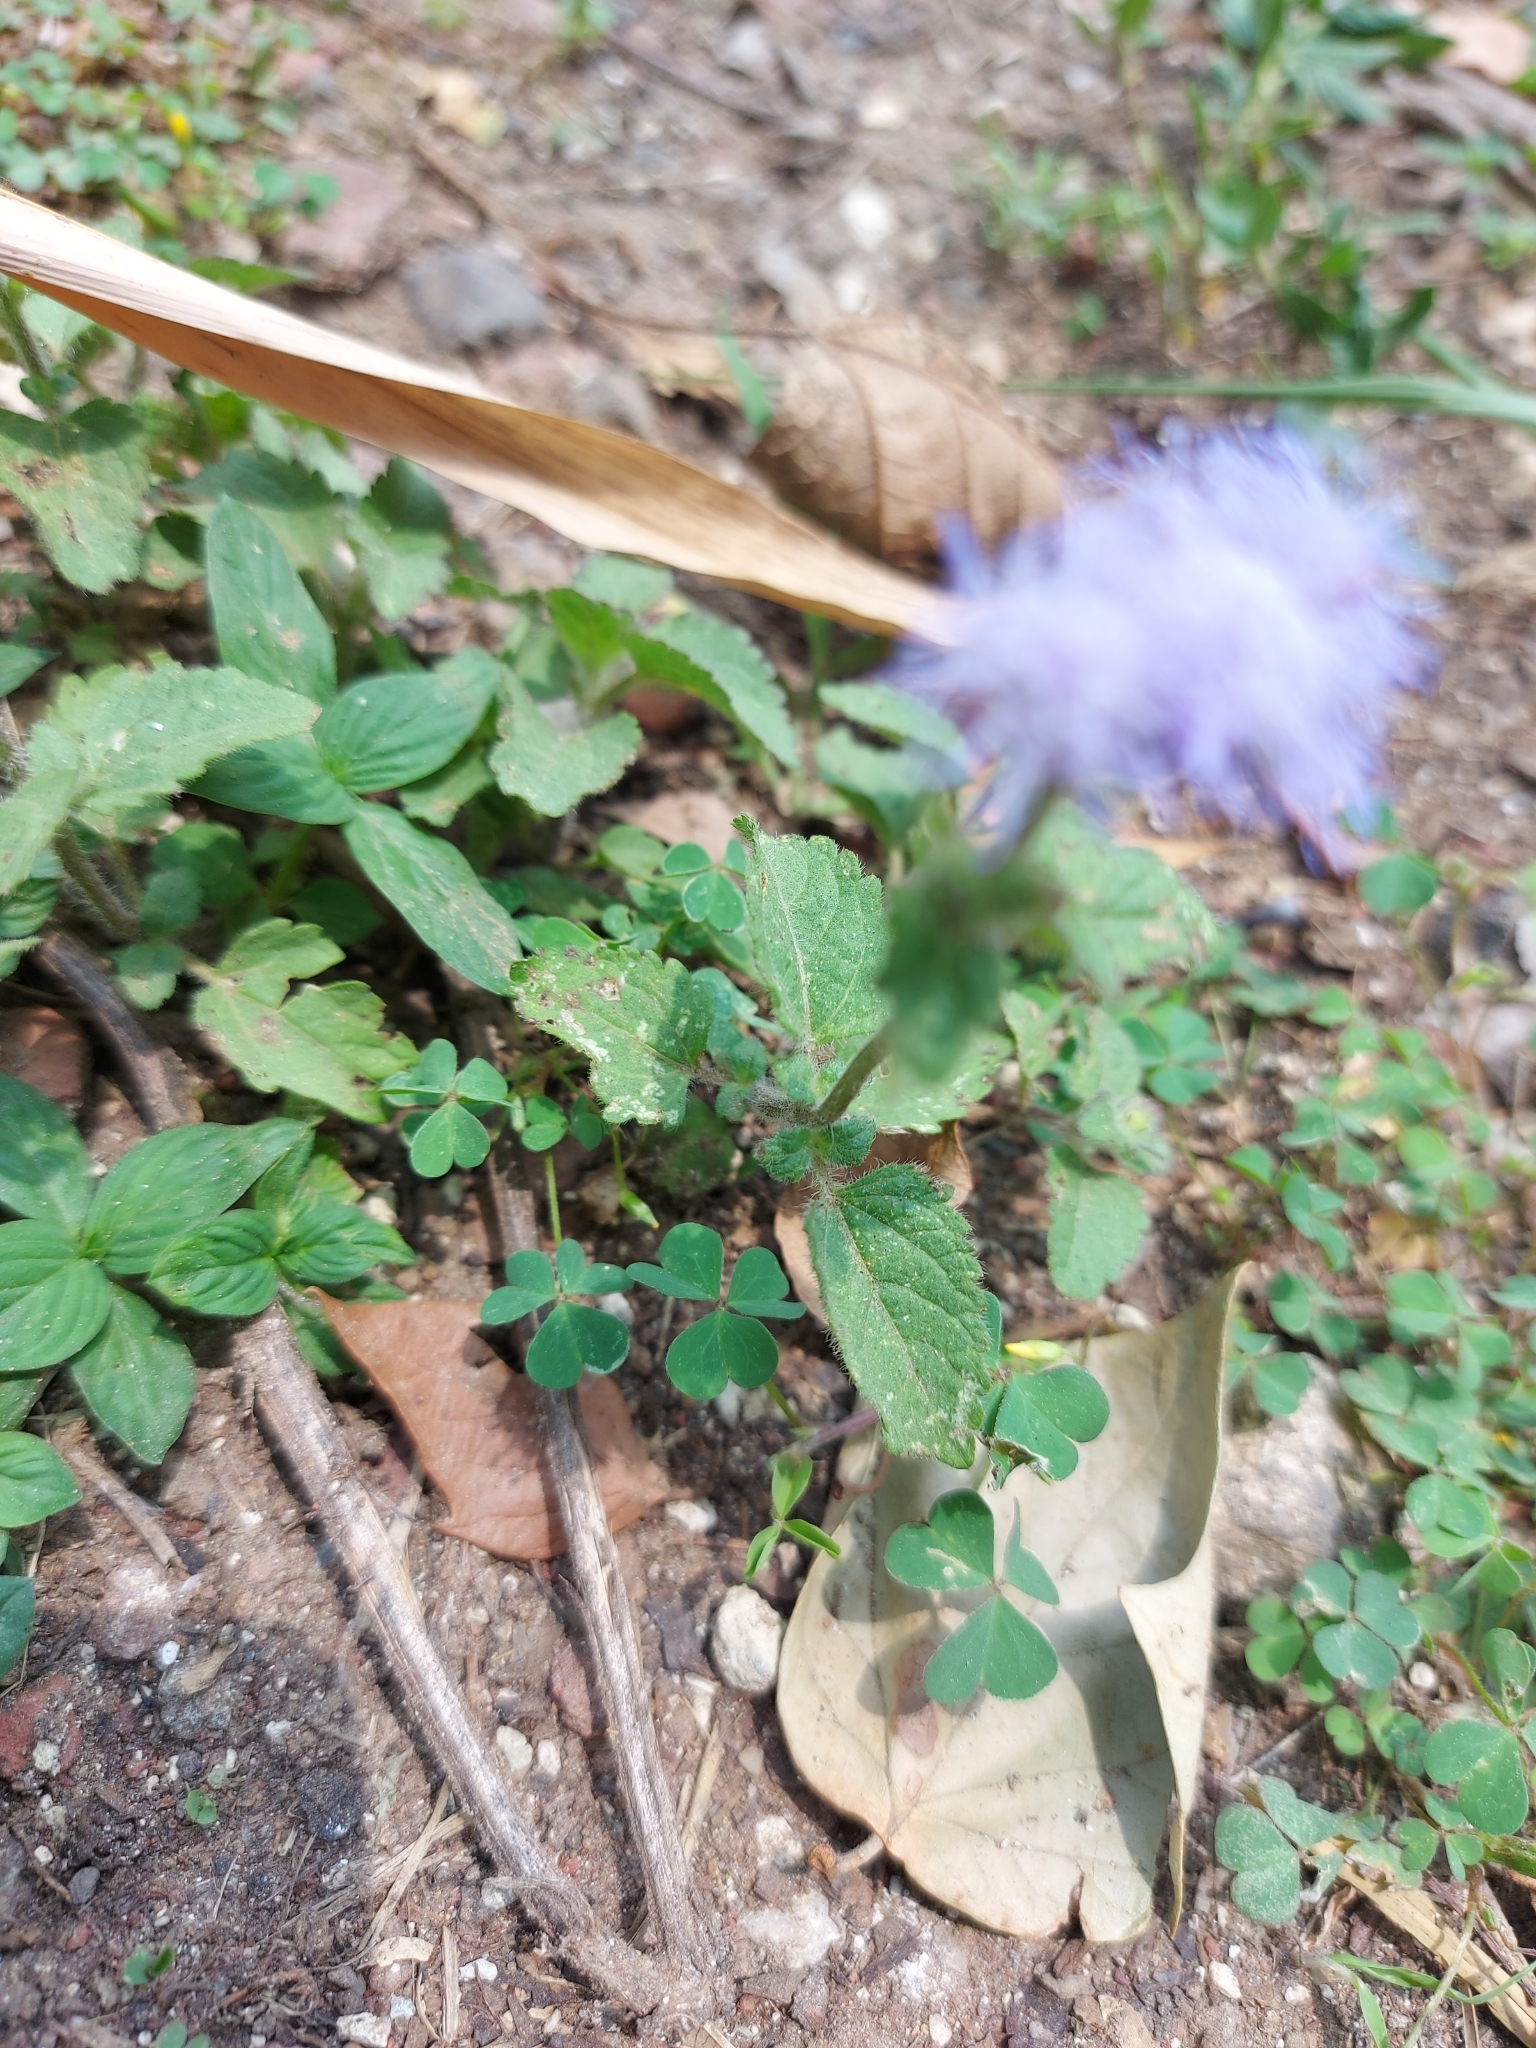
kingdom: Plantae
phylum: Tracheophyta
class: Magnoliopsida
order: Asterales
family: Asteraceae
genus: Ageratum
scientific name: Ageratum houstonianum
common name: Bluemink
